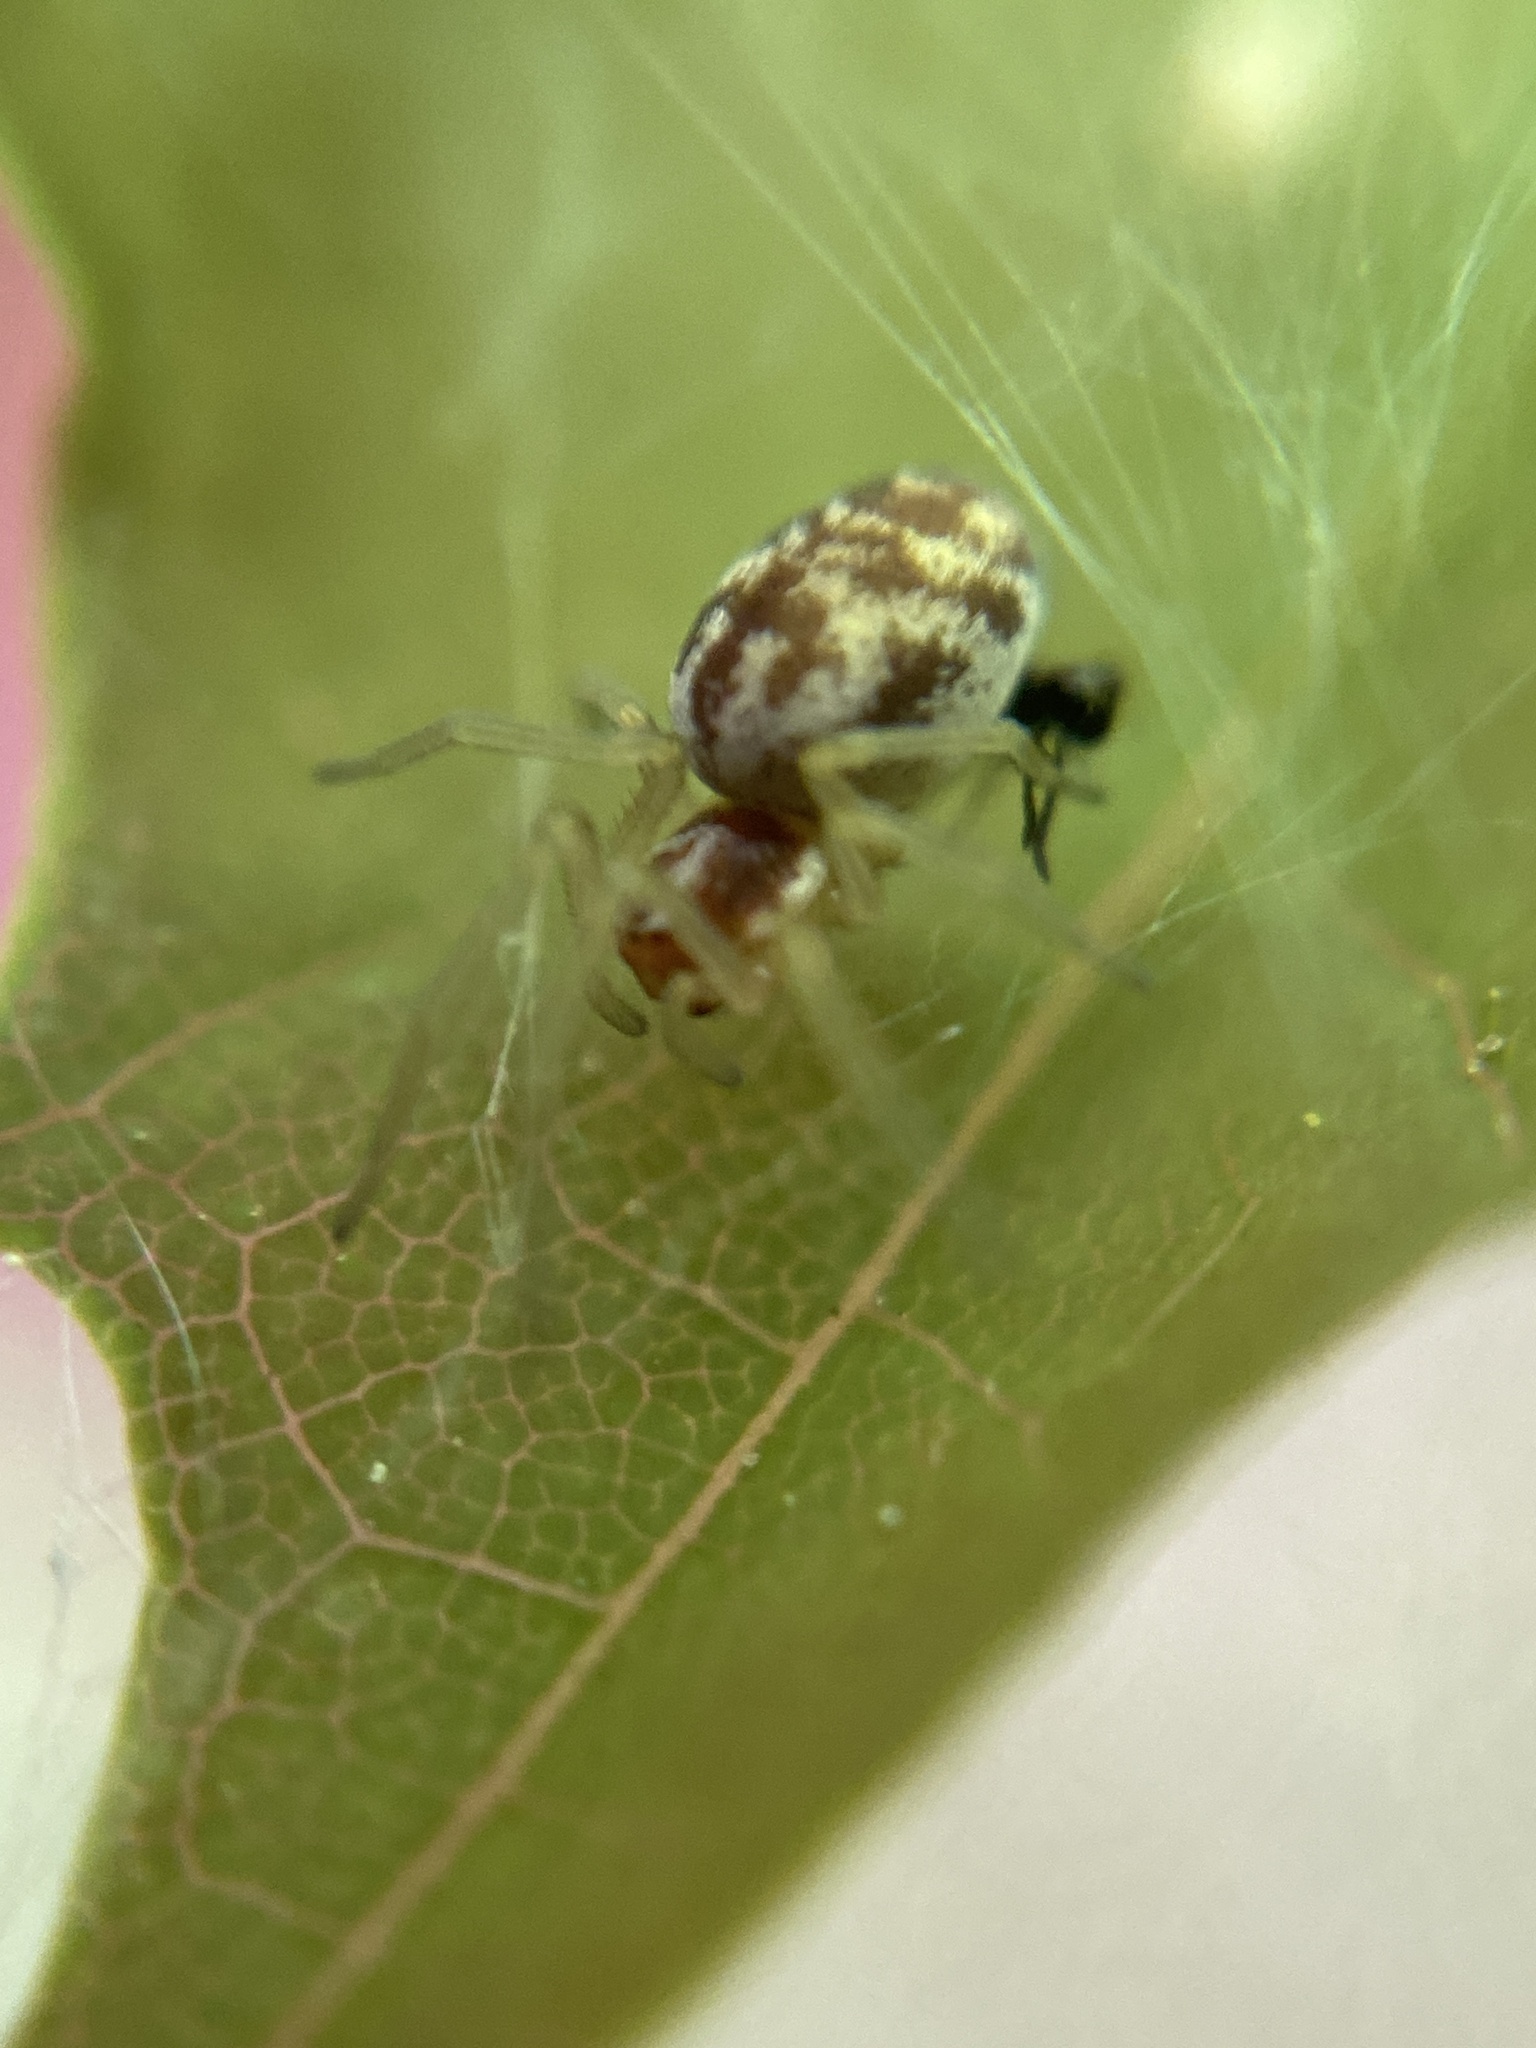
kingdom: Animalia
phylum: Arthropoda
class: Arachnida
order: Araneae
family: Dictynidae
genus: Nigma
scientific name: Nigma flavescens
